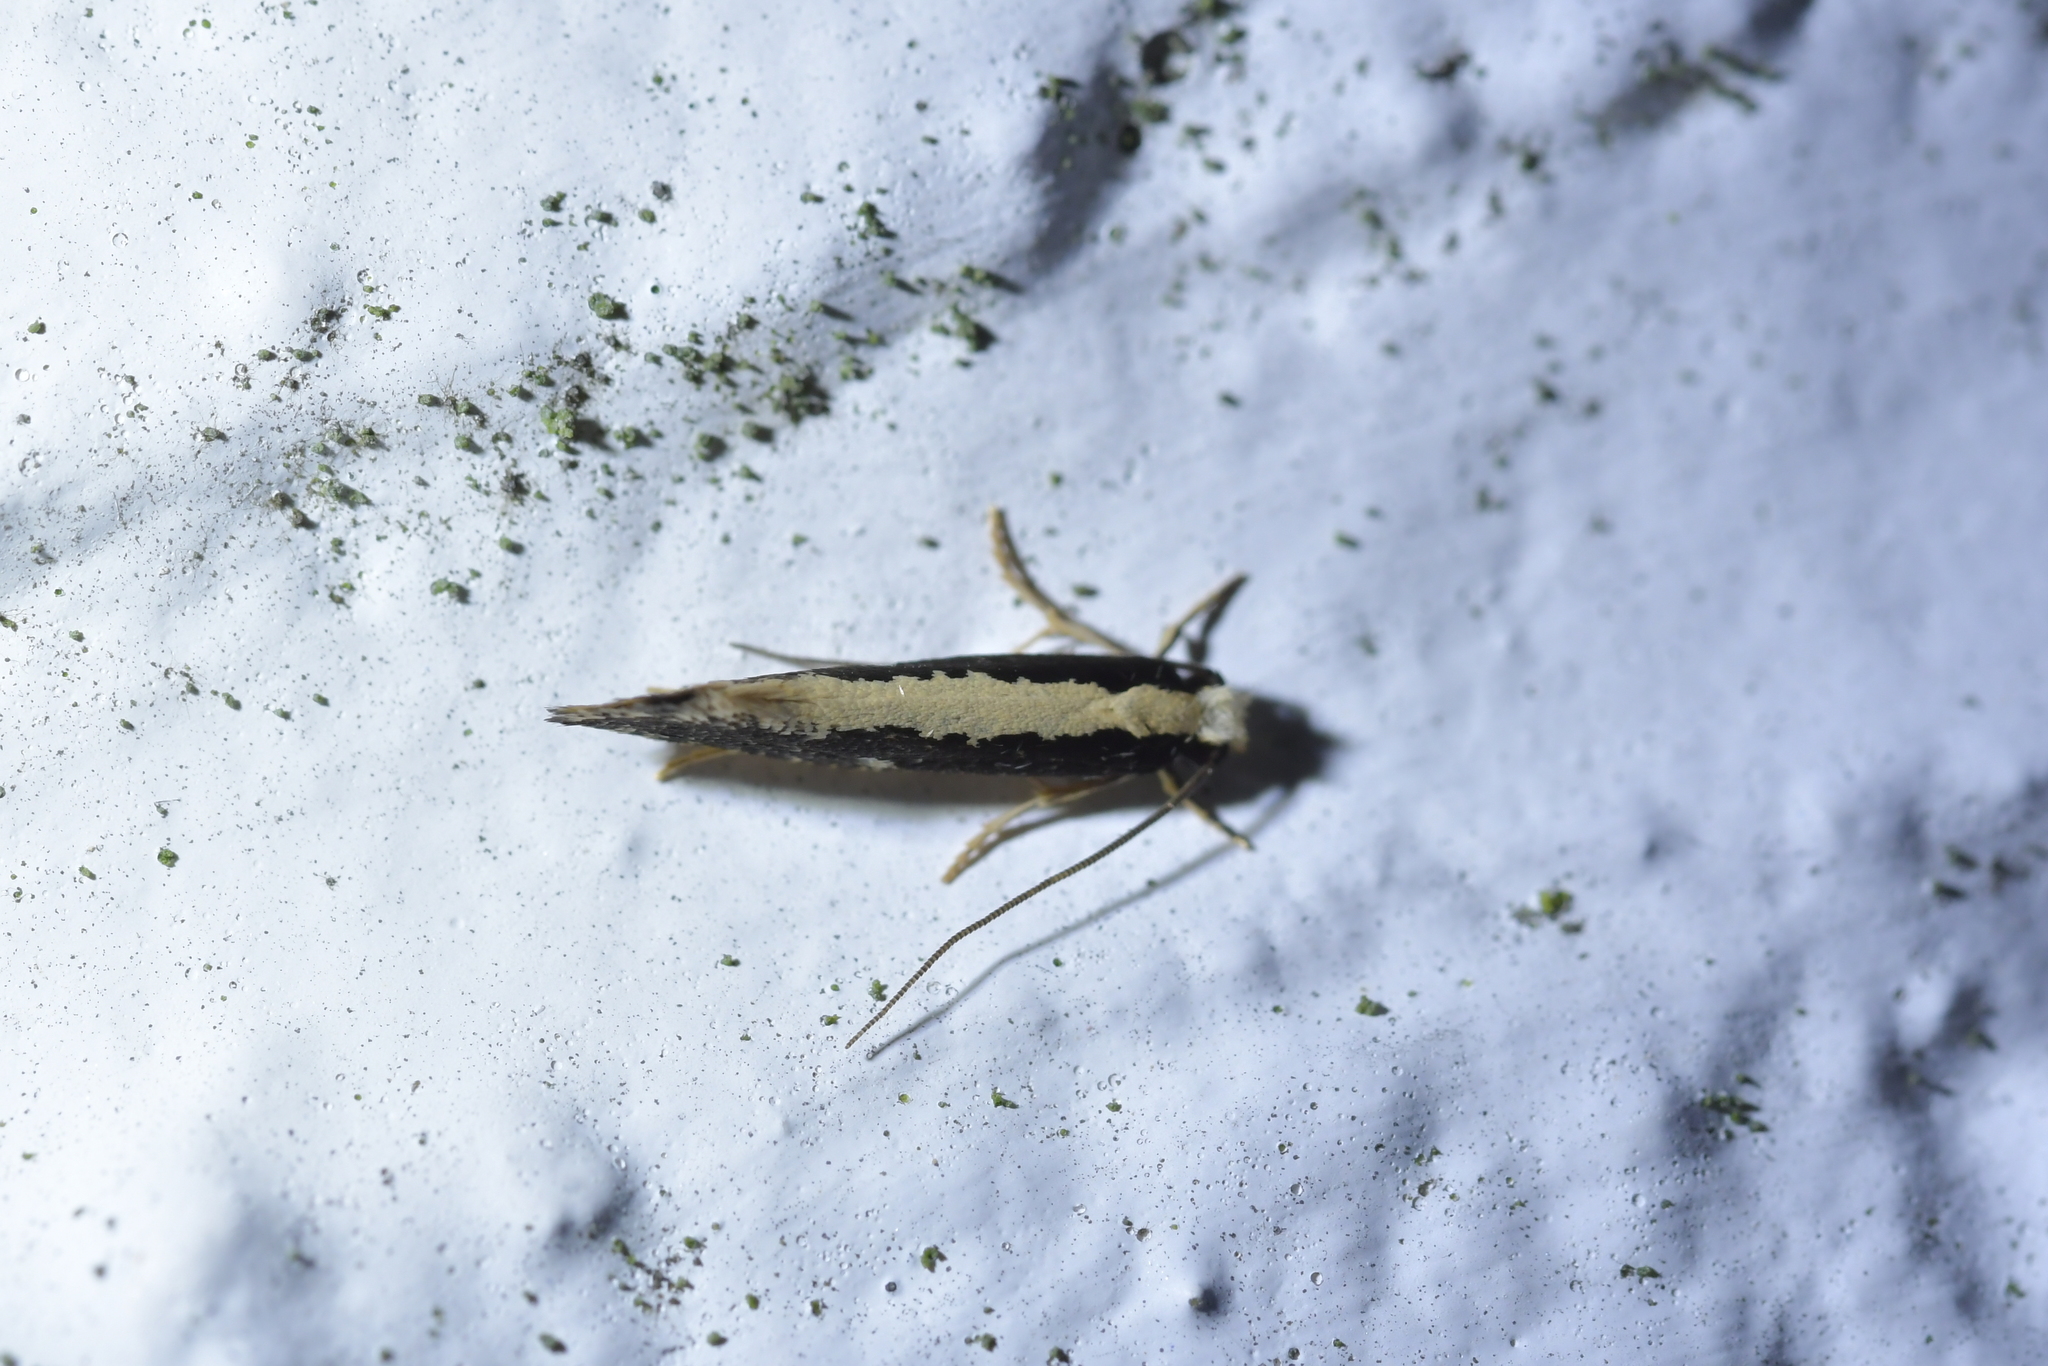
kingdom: Animalia
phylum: Arthropoda
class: Insecta
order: Lepidoptera
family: Tineidae
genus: Monopis
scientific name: Monopis ethelella
